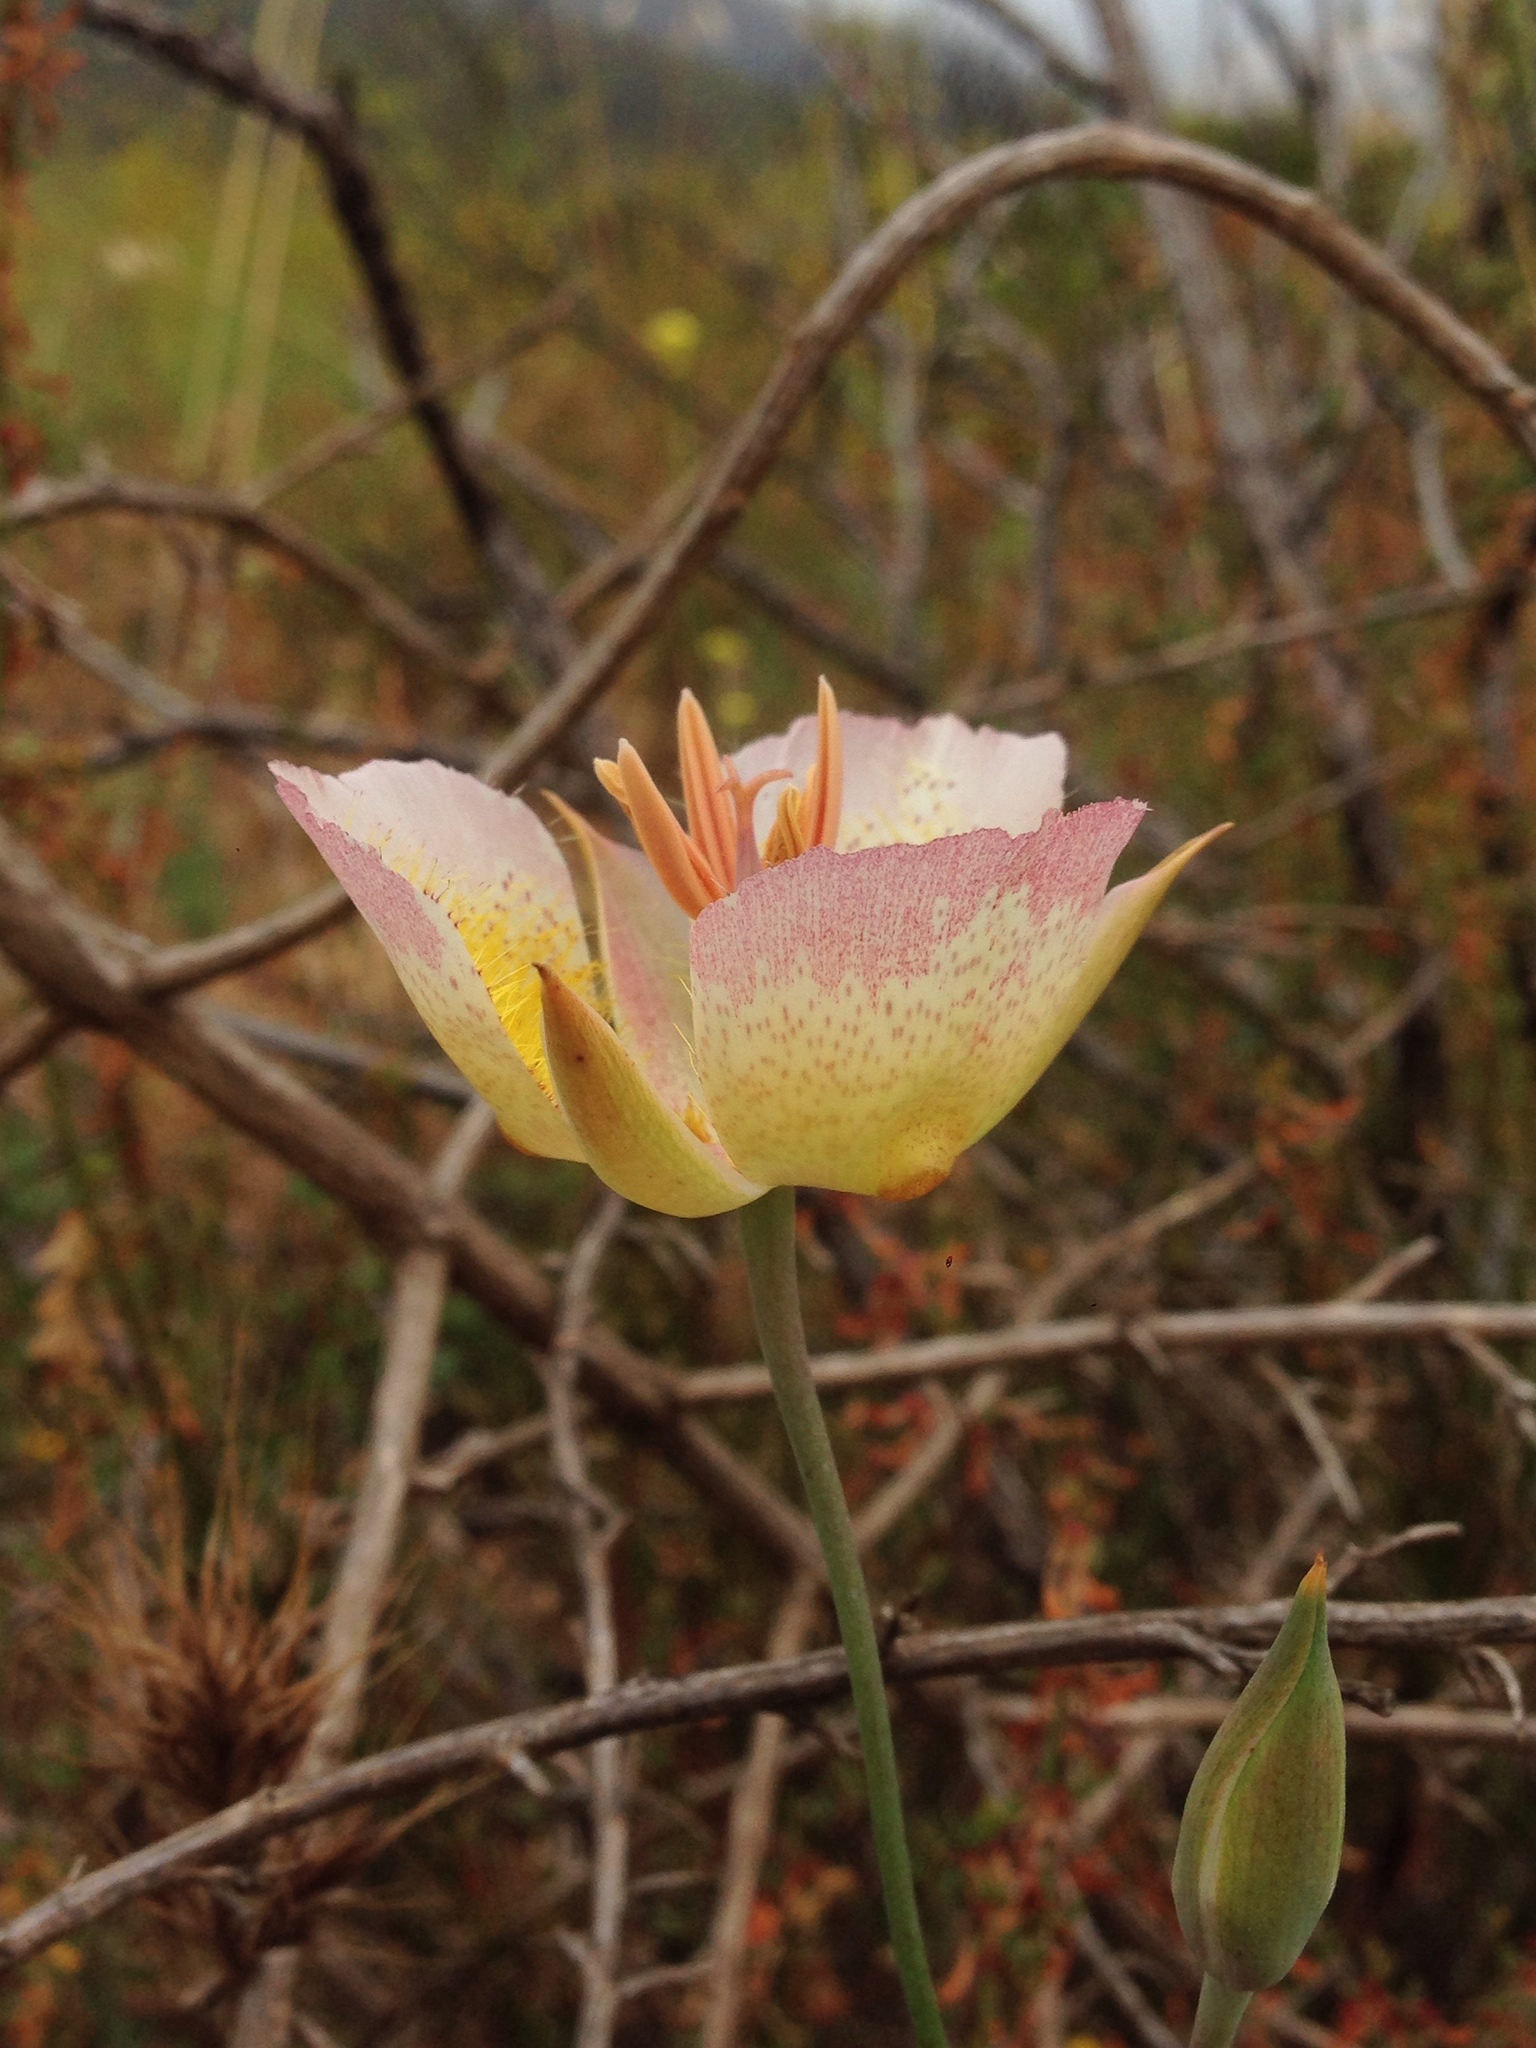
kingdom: Plantae
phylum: Tracheophyta
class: Liliopsida
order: Liliales
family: Liliaceae
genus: Calochortus
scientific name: Calochortus plummerae
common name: Plummer's mariposa-lily
